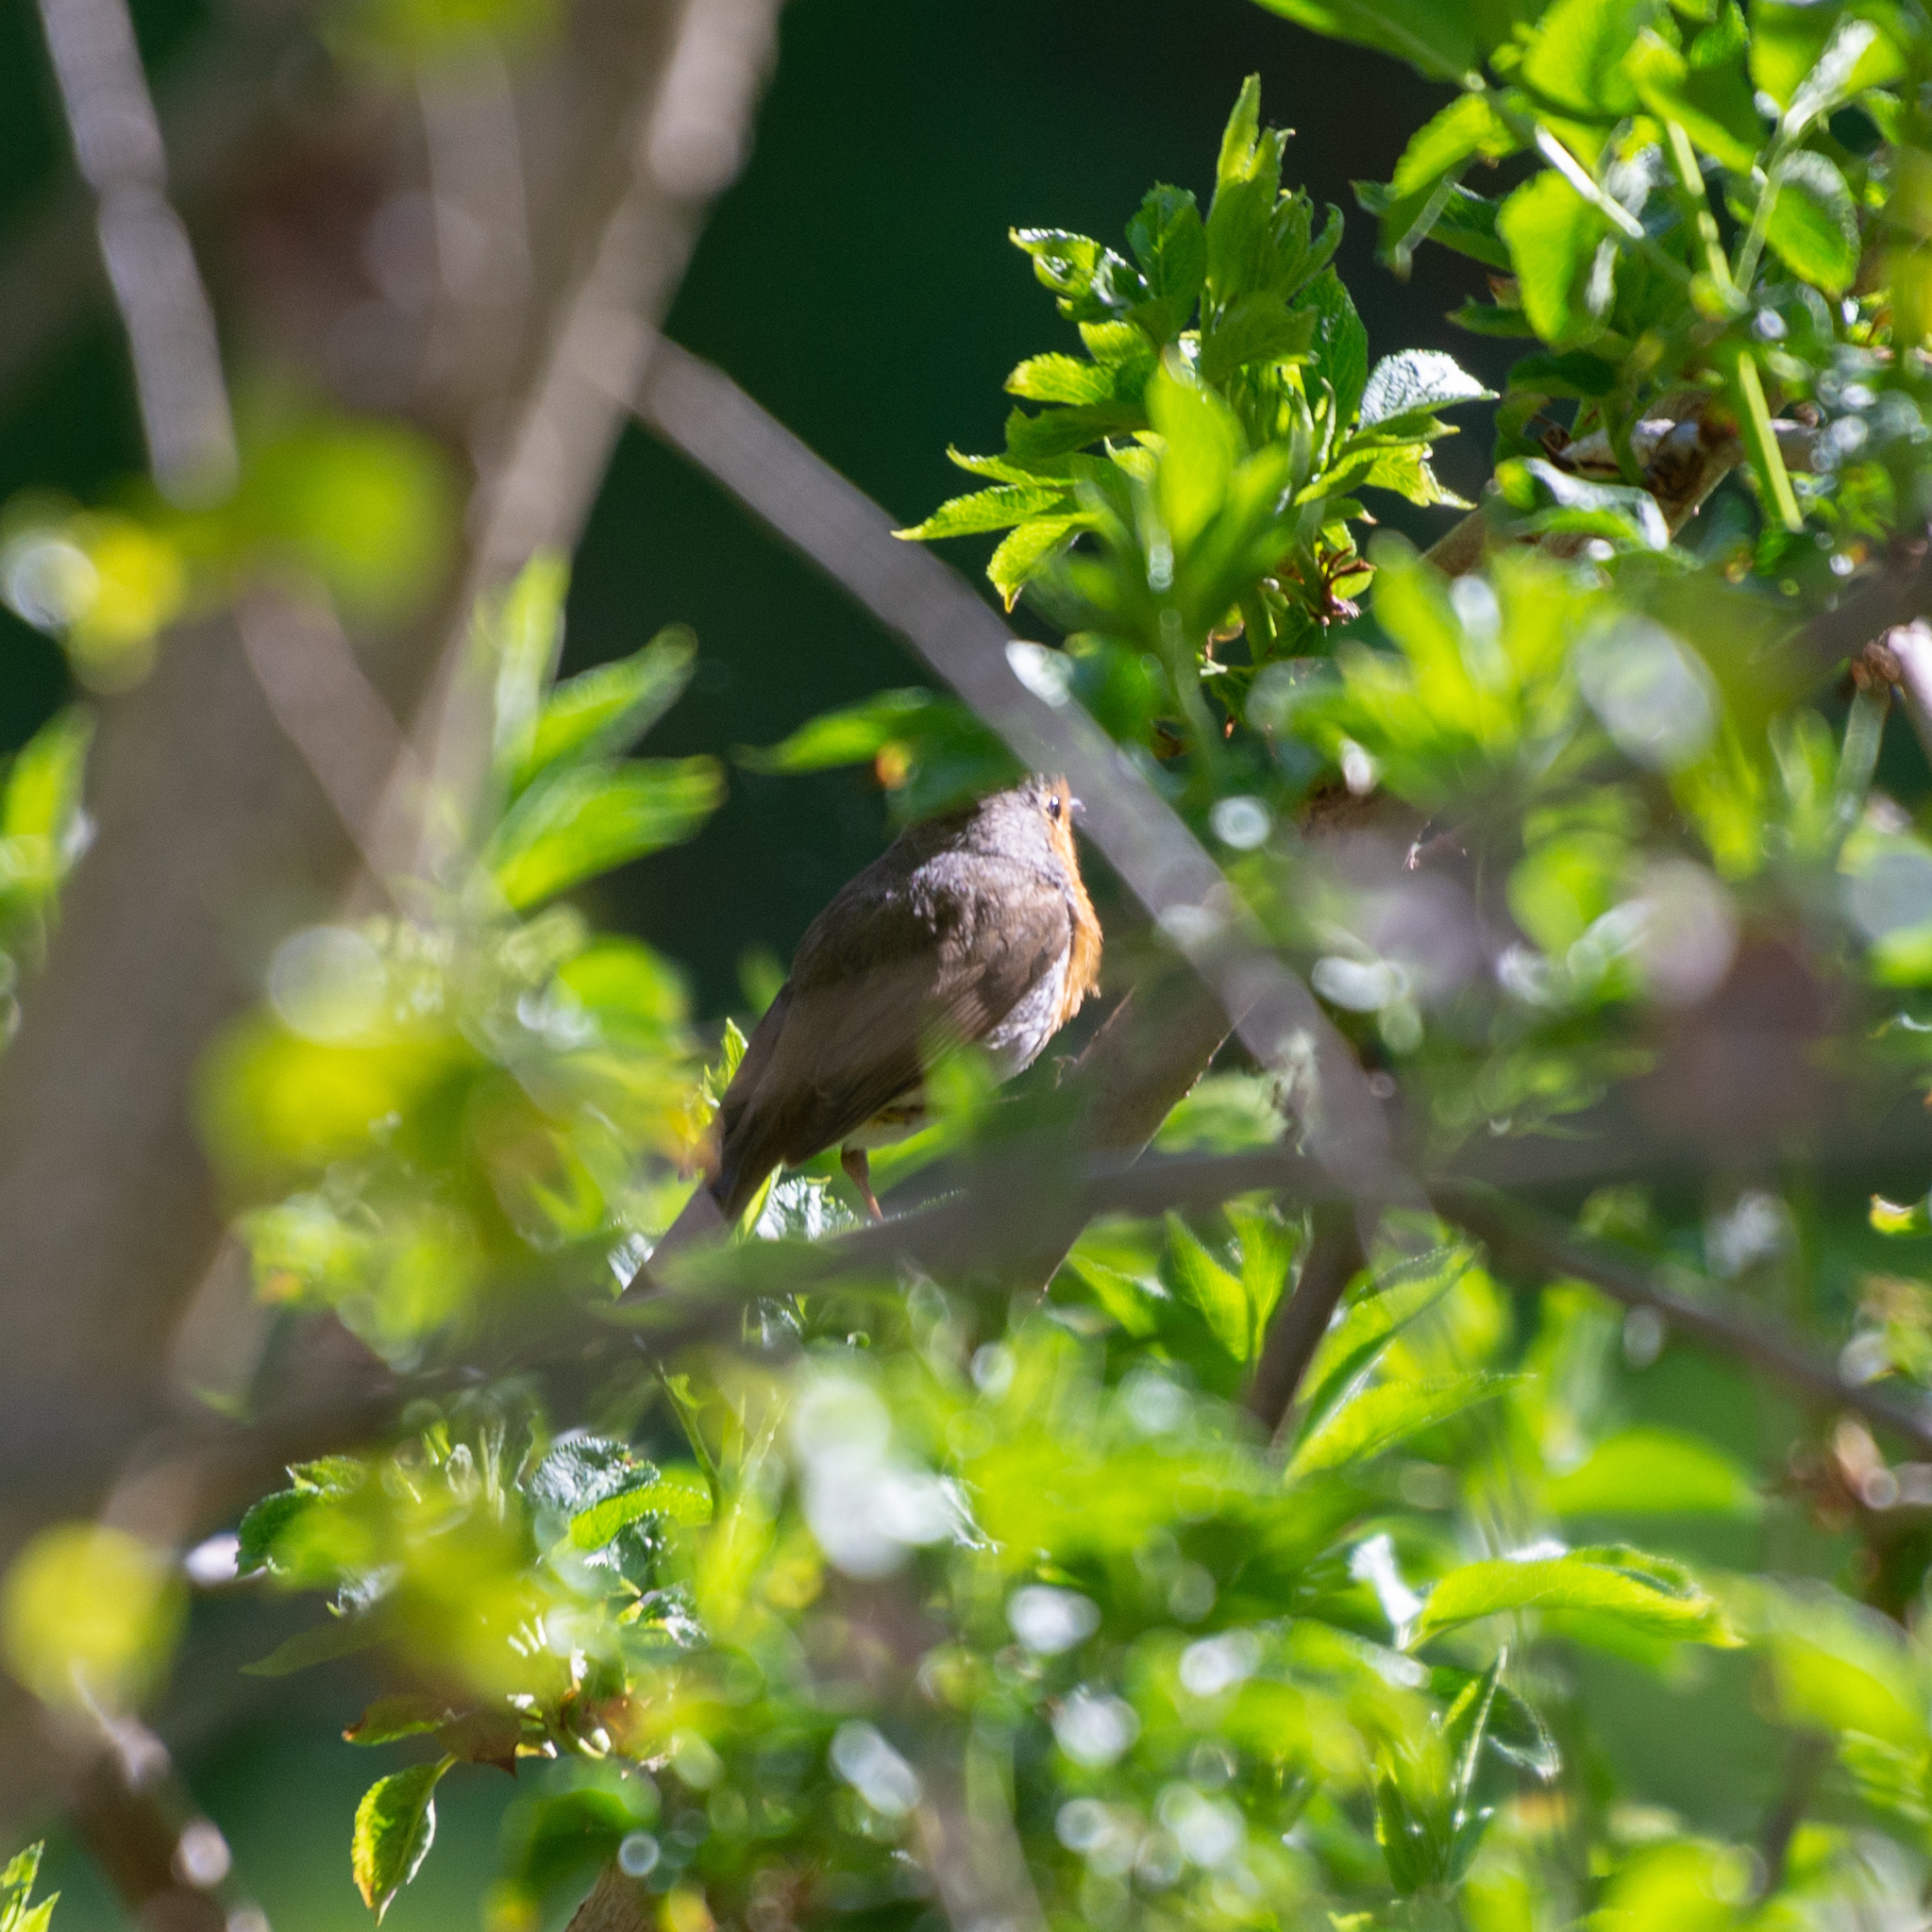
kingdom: Animalia
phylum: Chordata
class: Aves
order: Passeriformes
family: Muscicapidae
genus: Erithacus
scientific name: Erithacus rubecula
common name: European robin
